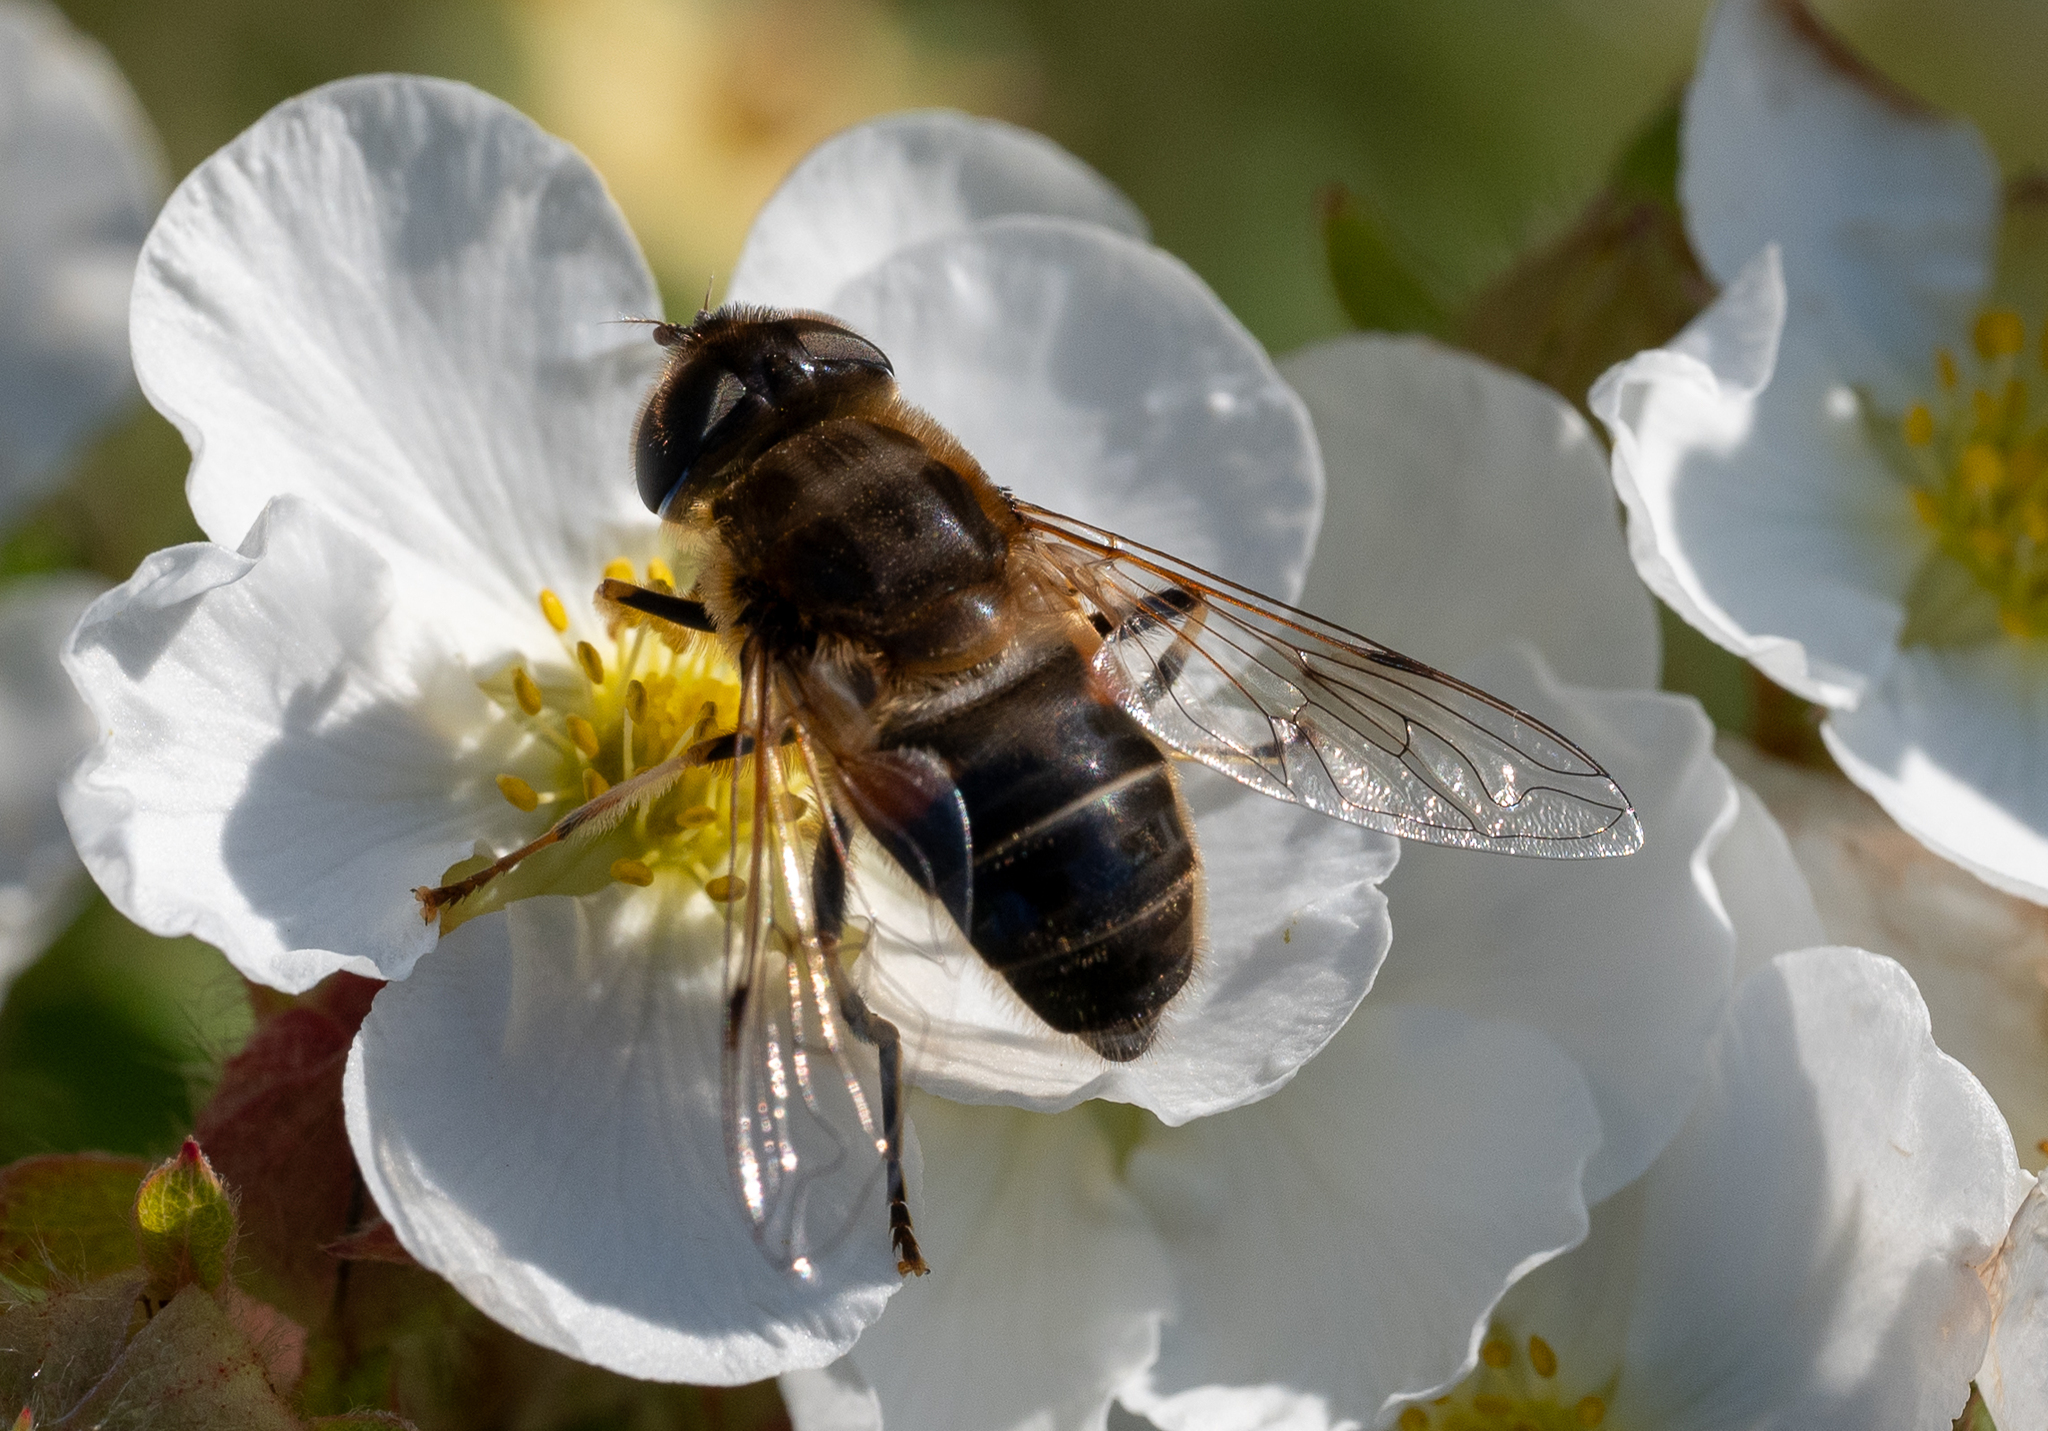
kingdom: Animalia
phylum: Arthropoda
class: Insecta
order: Diptera
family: Syrphidae
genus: Eristalis
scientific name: Eristalis pertinax
